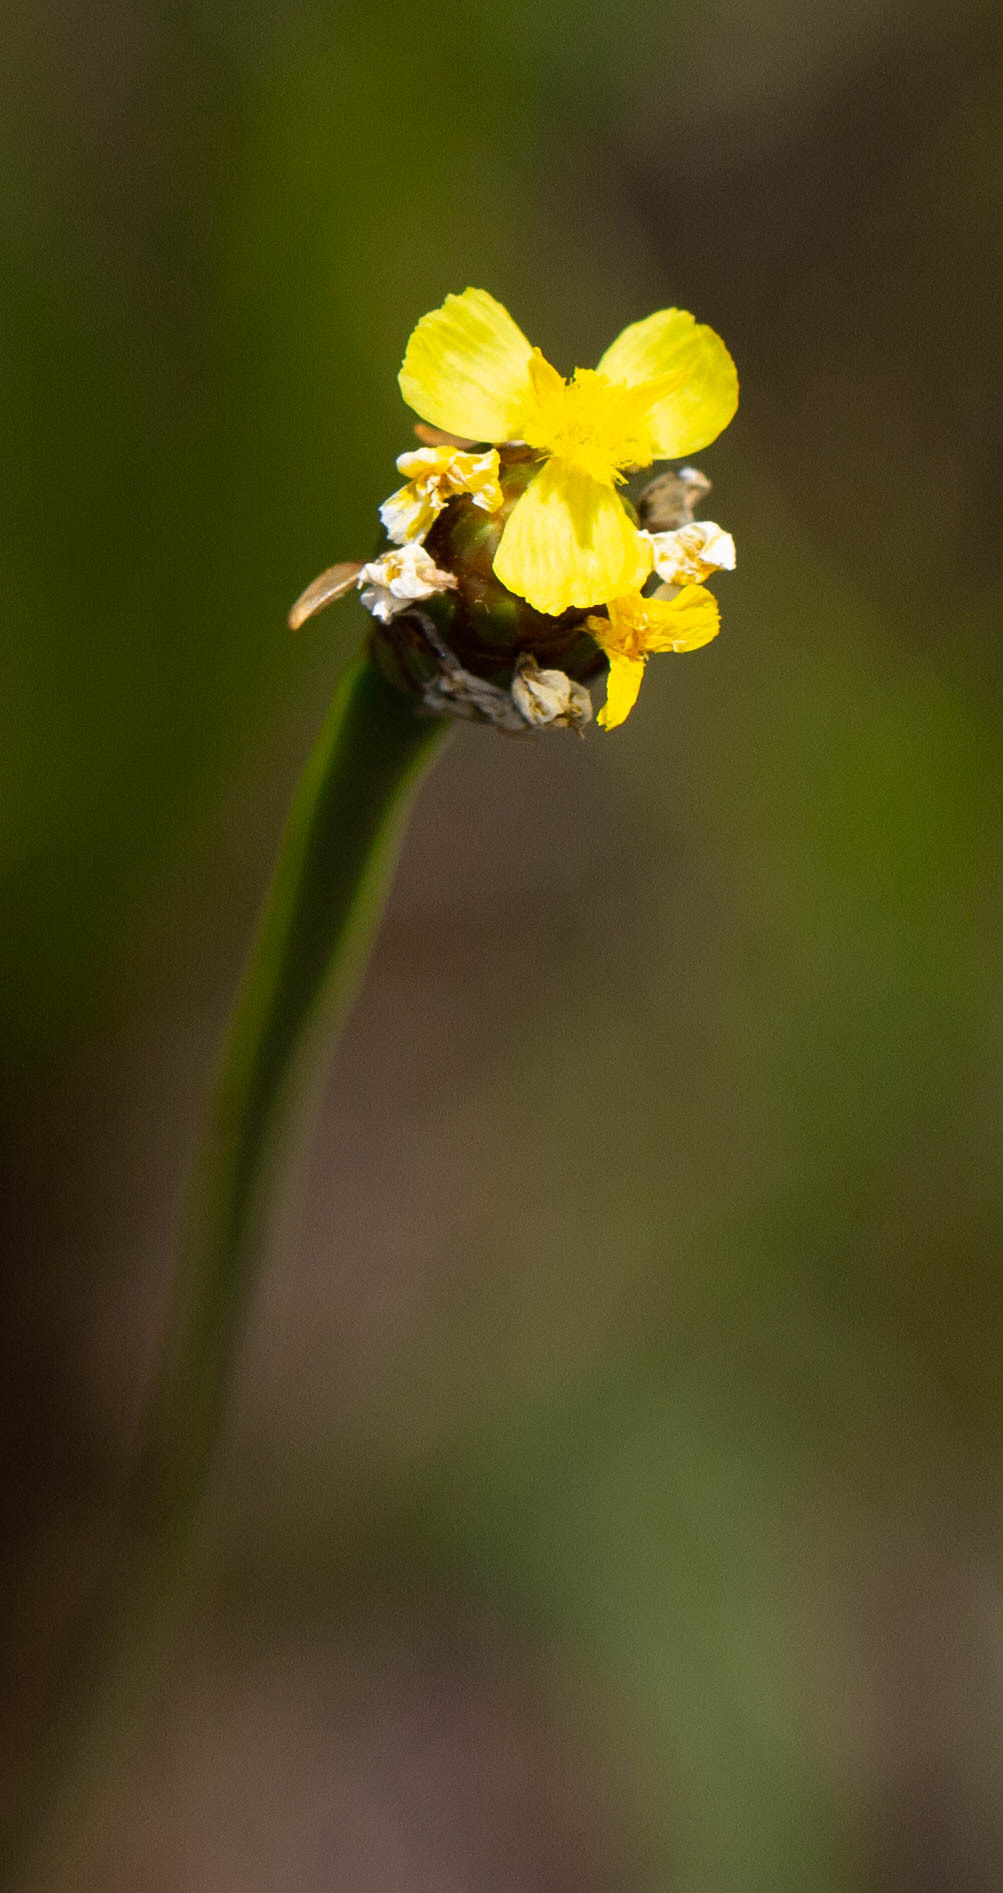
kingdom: Plantae
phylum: Tracheophyta
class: Liliopsida
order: Poales
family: Xyridaceae
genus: Xyris
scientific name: Xyris platylepis
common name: Tall yelloweyed grass
